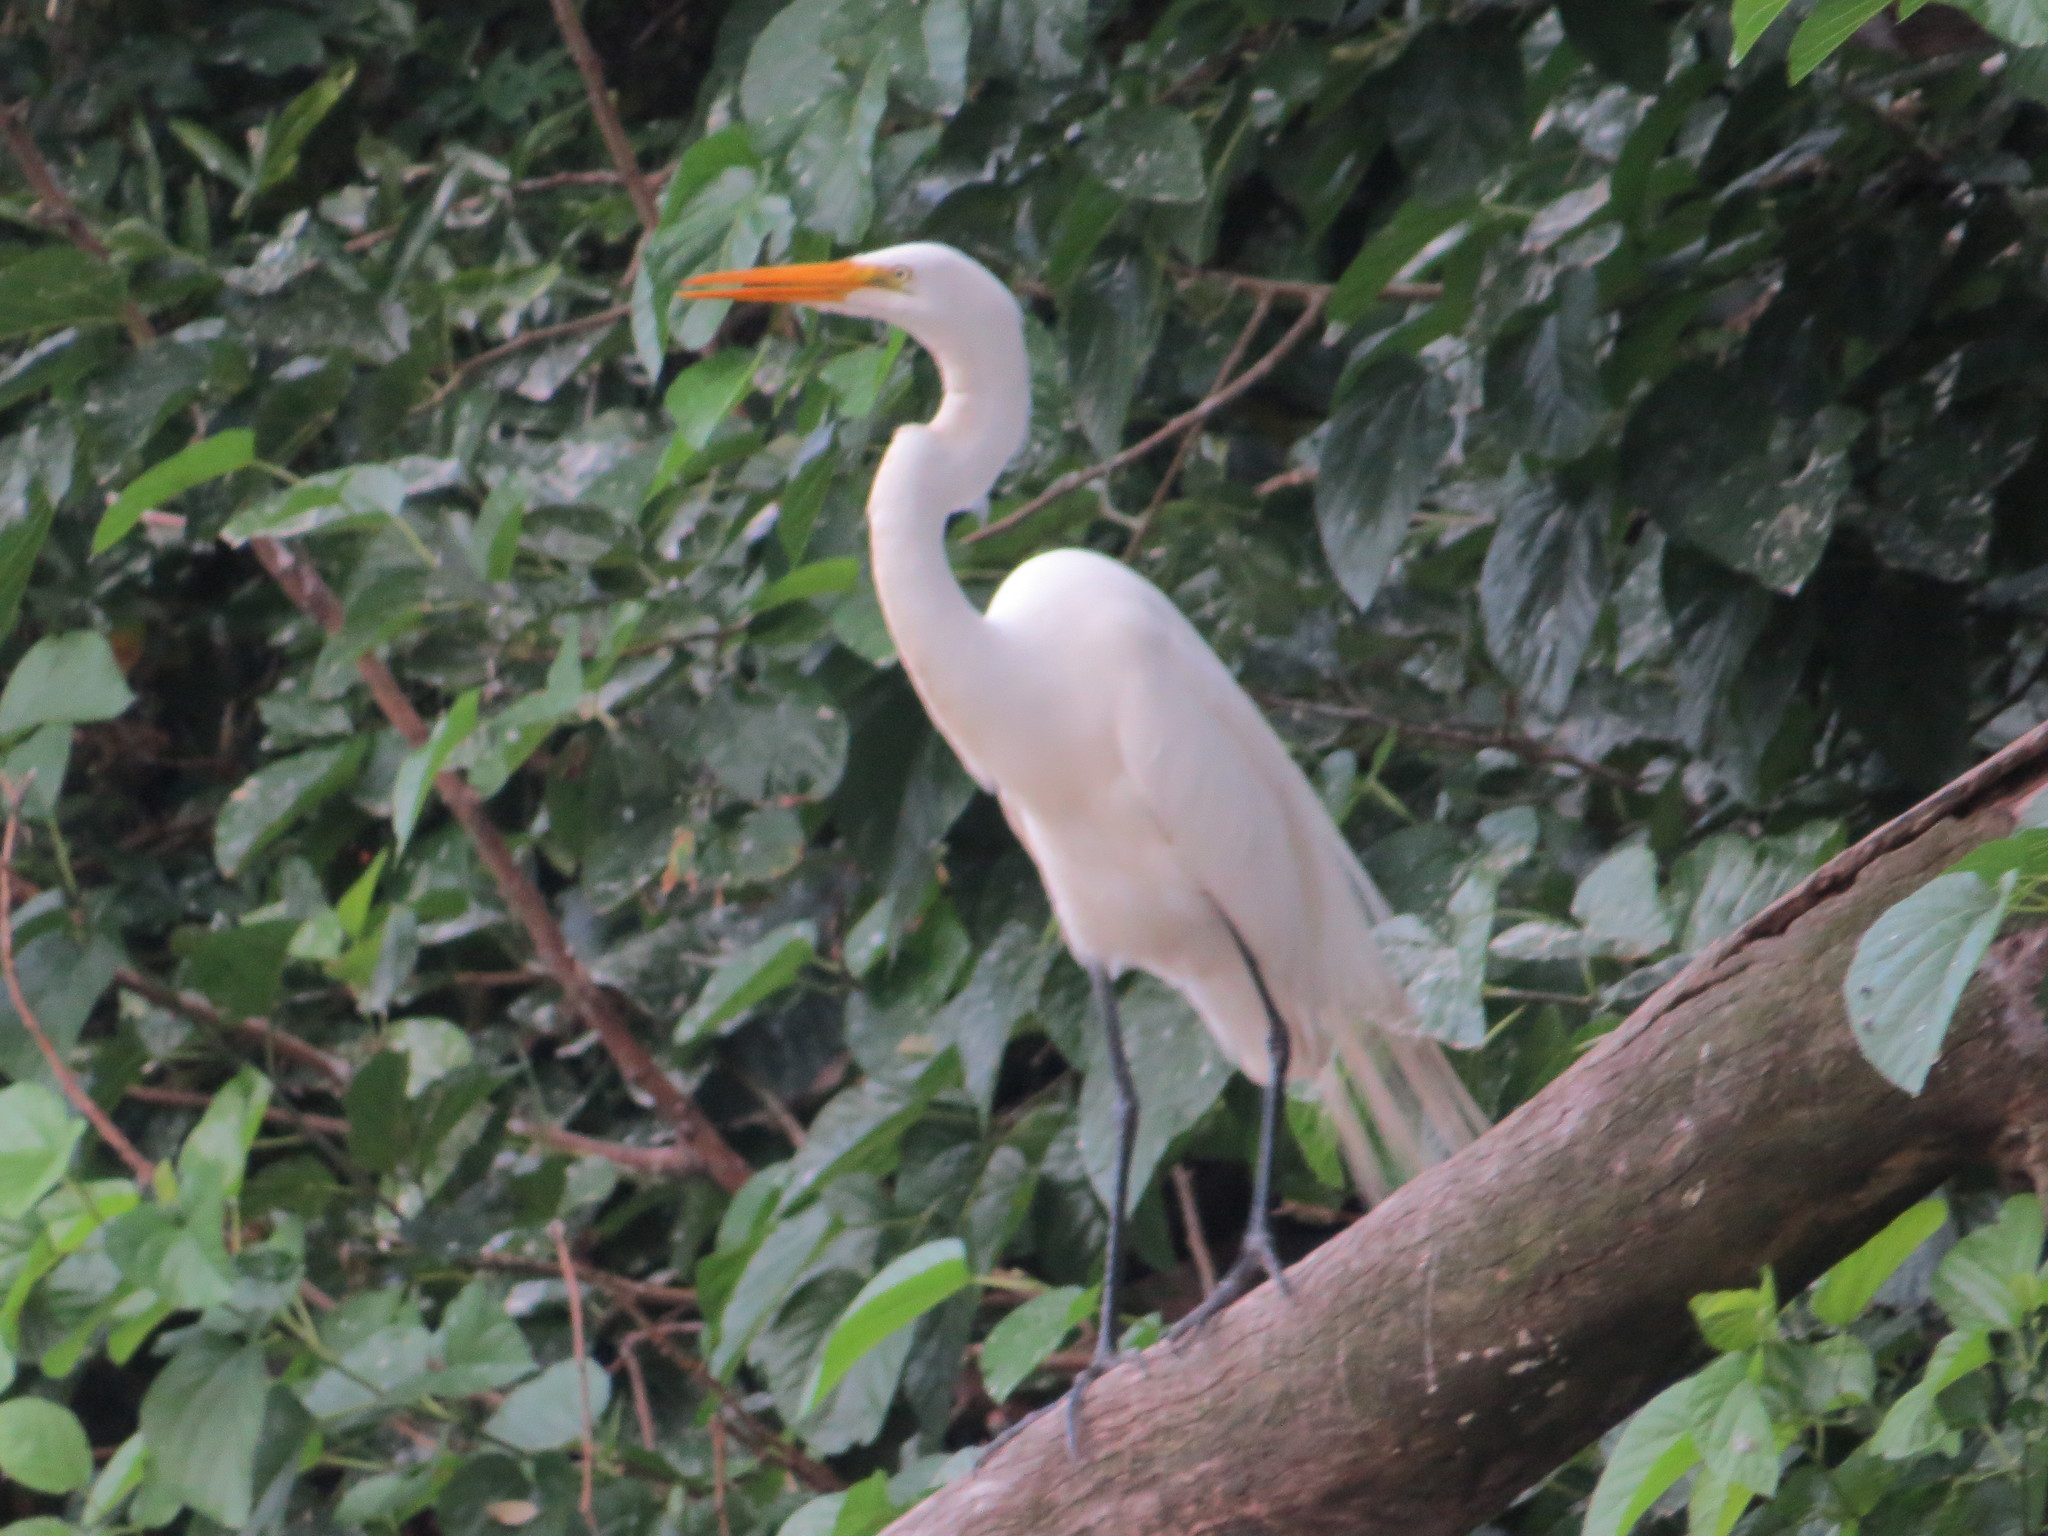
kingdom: Animalia
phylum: Chordata
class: Aves
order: Pelecaniformes
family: Ardeidae
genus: Ardea
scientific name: Ardea alba
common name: Great egret
